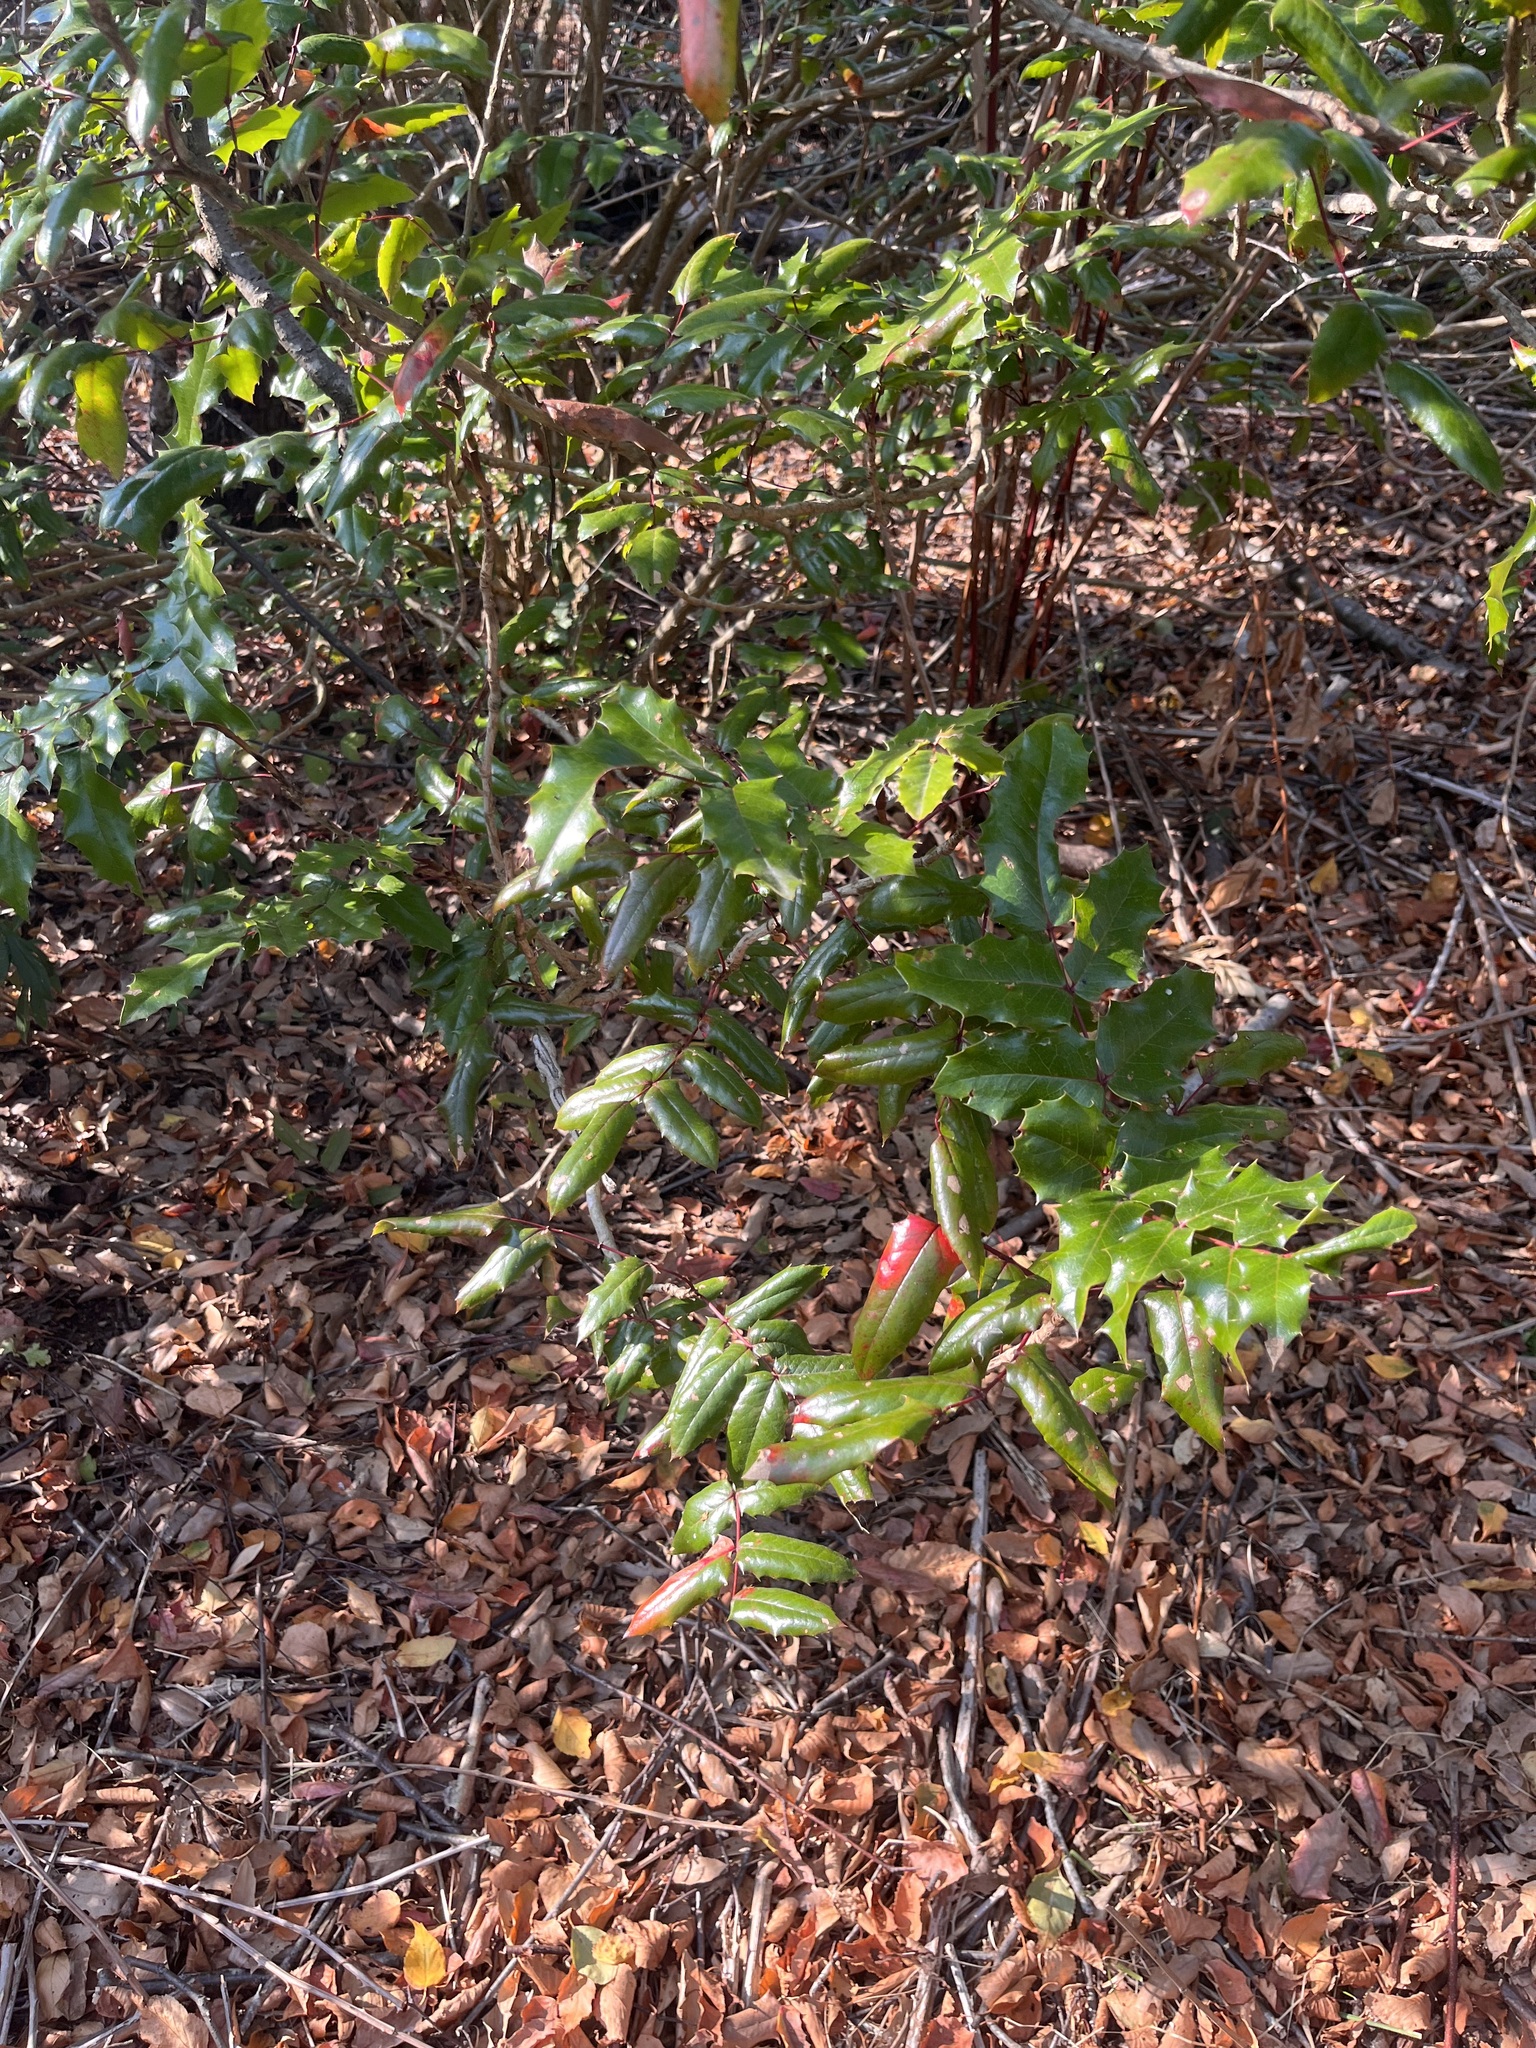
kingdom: Plantae
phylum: Tracheophyta
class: Magnoliopsida
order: Ranunculales
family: Berberidaceae
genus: Mahonia
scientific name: Mahonia aquifolium
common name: Oregon-grape
